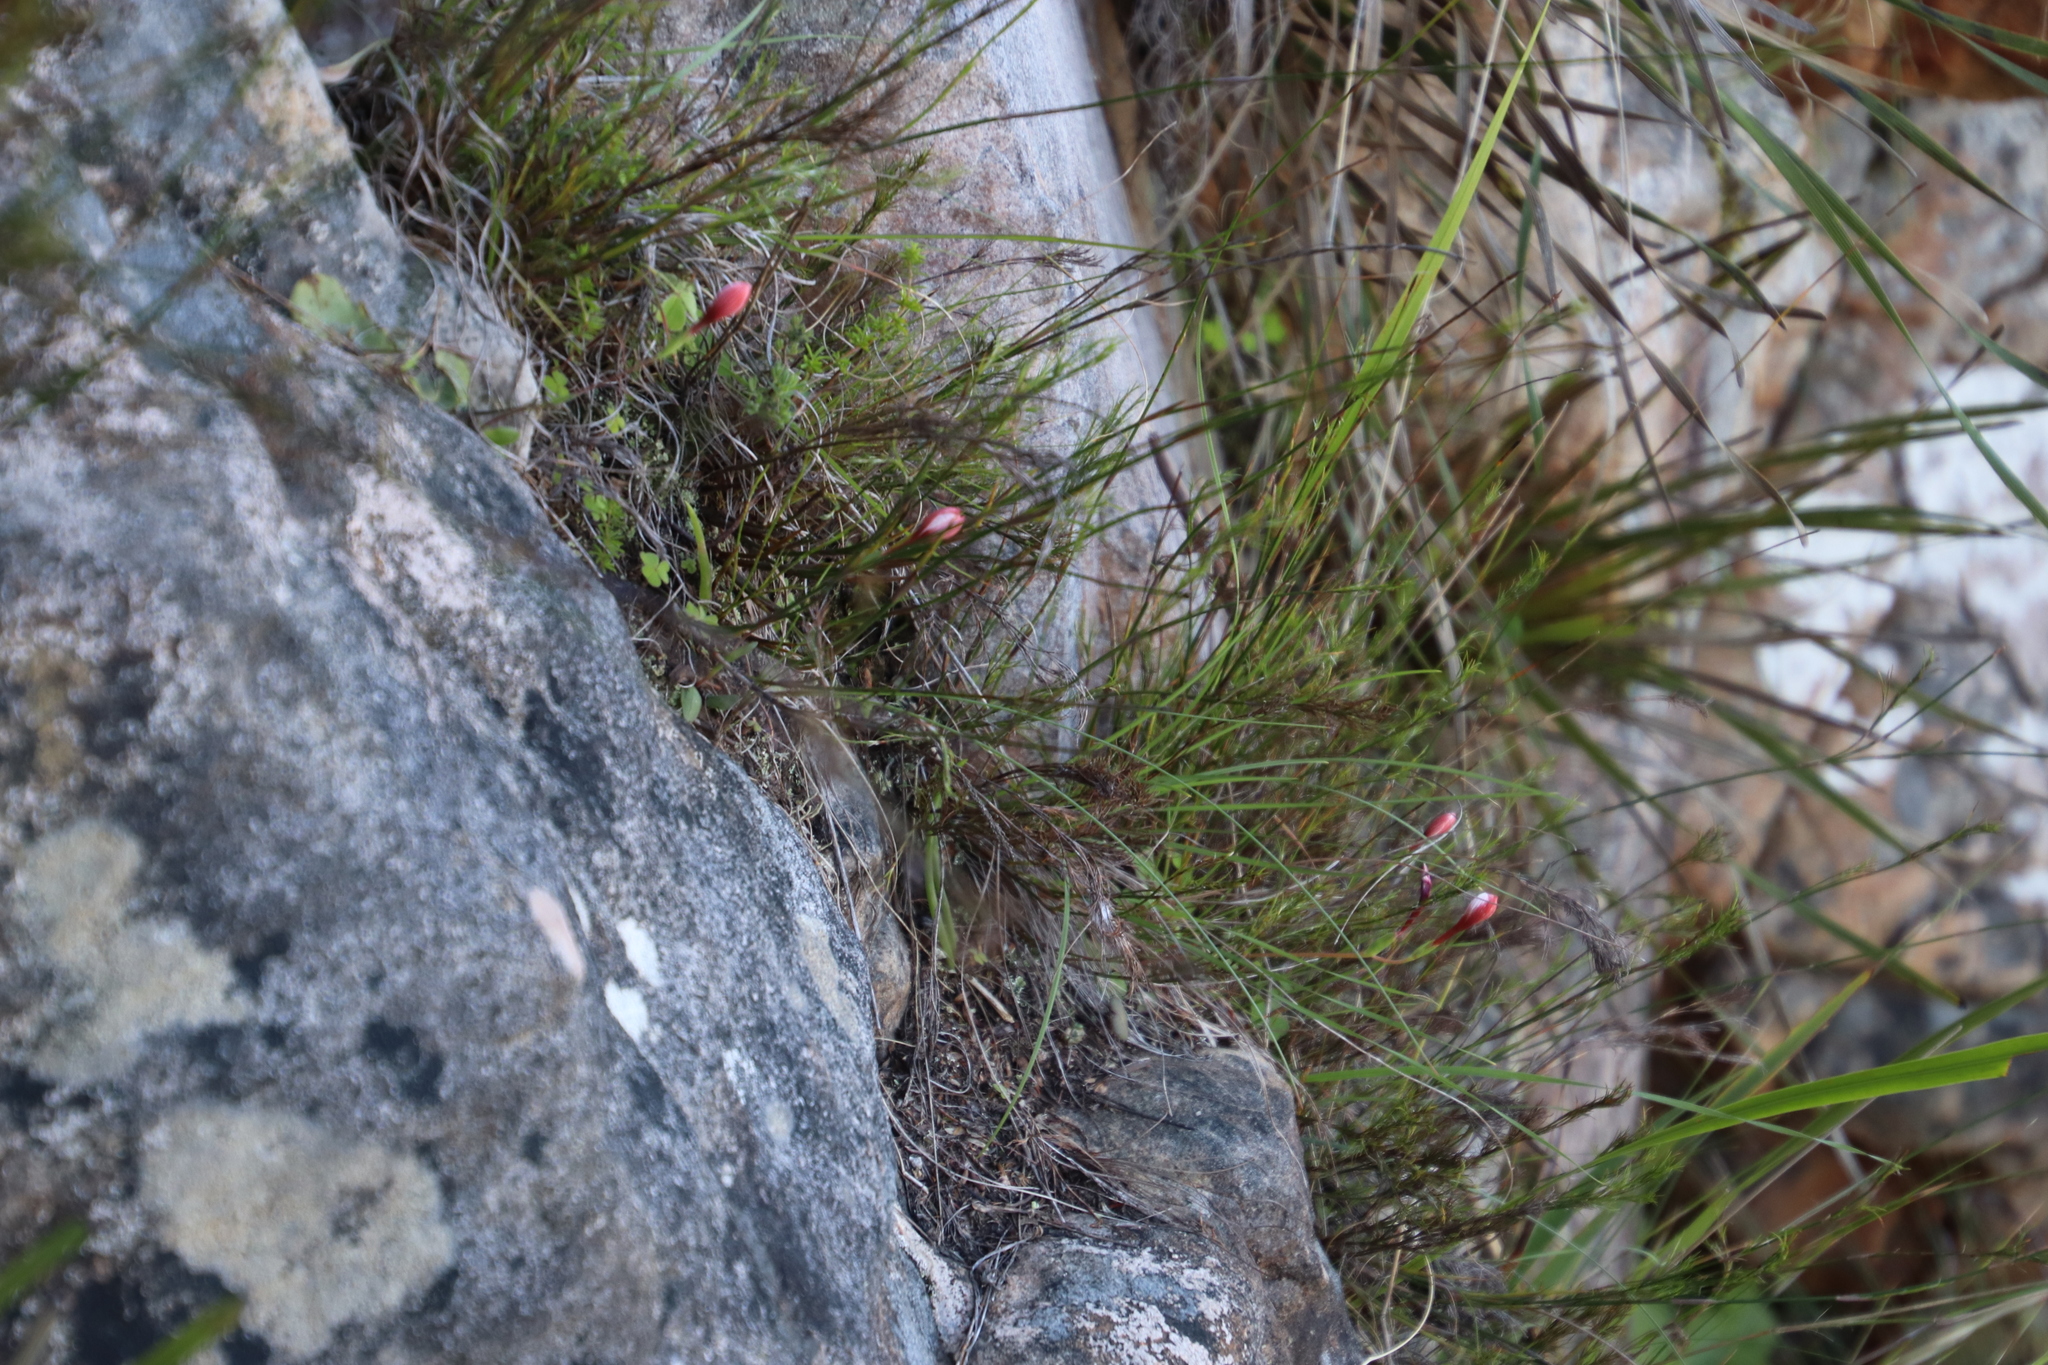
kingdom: Plantae
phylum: Tracheophyta
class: Liliopsida
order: Asparagales
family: Iridaceae
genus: Geissorhiza
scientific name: Geissorhiza ovata
